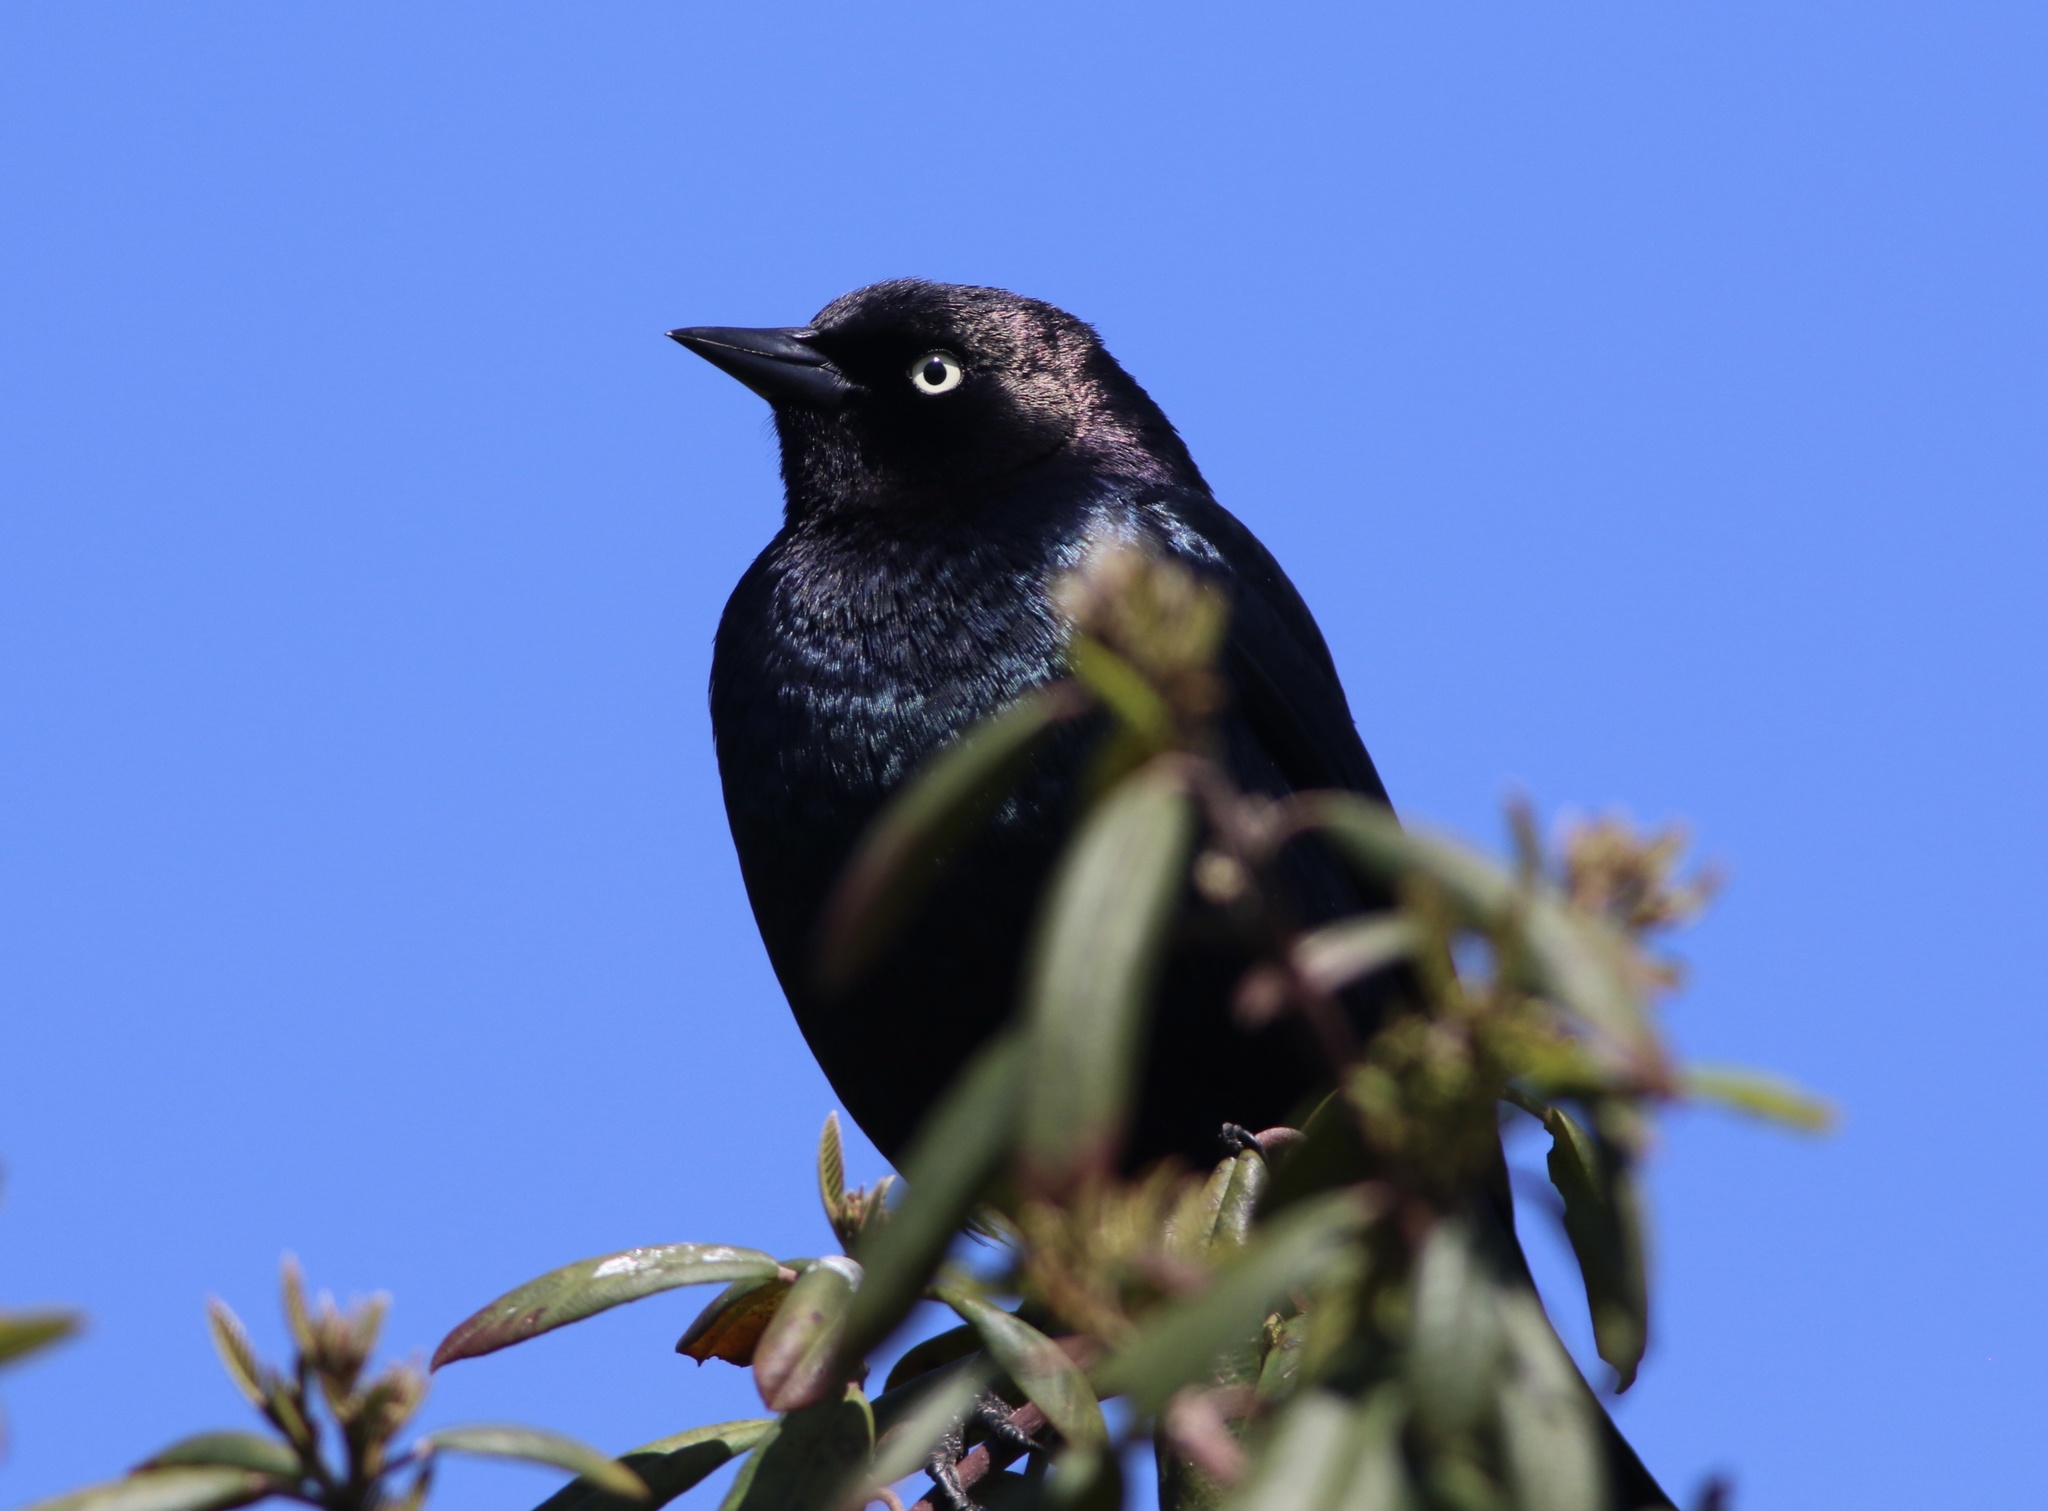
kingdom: Animalia
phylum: Chordata
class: Aves
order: Passeriformes
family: Icteridae
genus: Euphagus
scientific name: Euphagus cyanocephalus
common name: Brewer's blackbird
